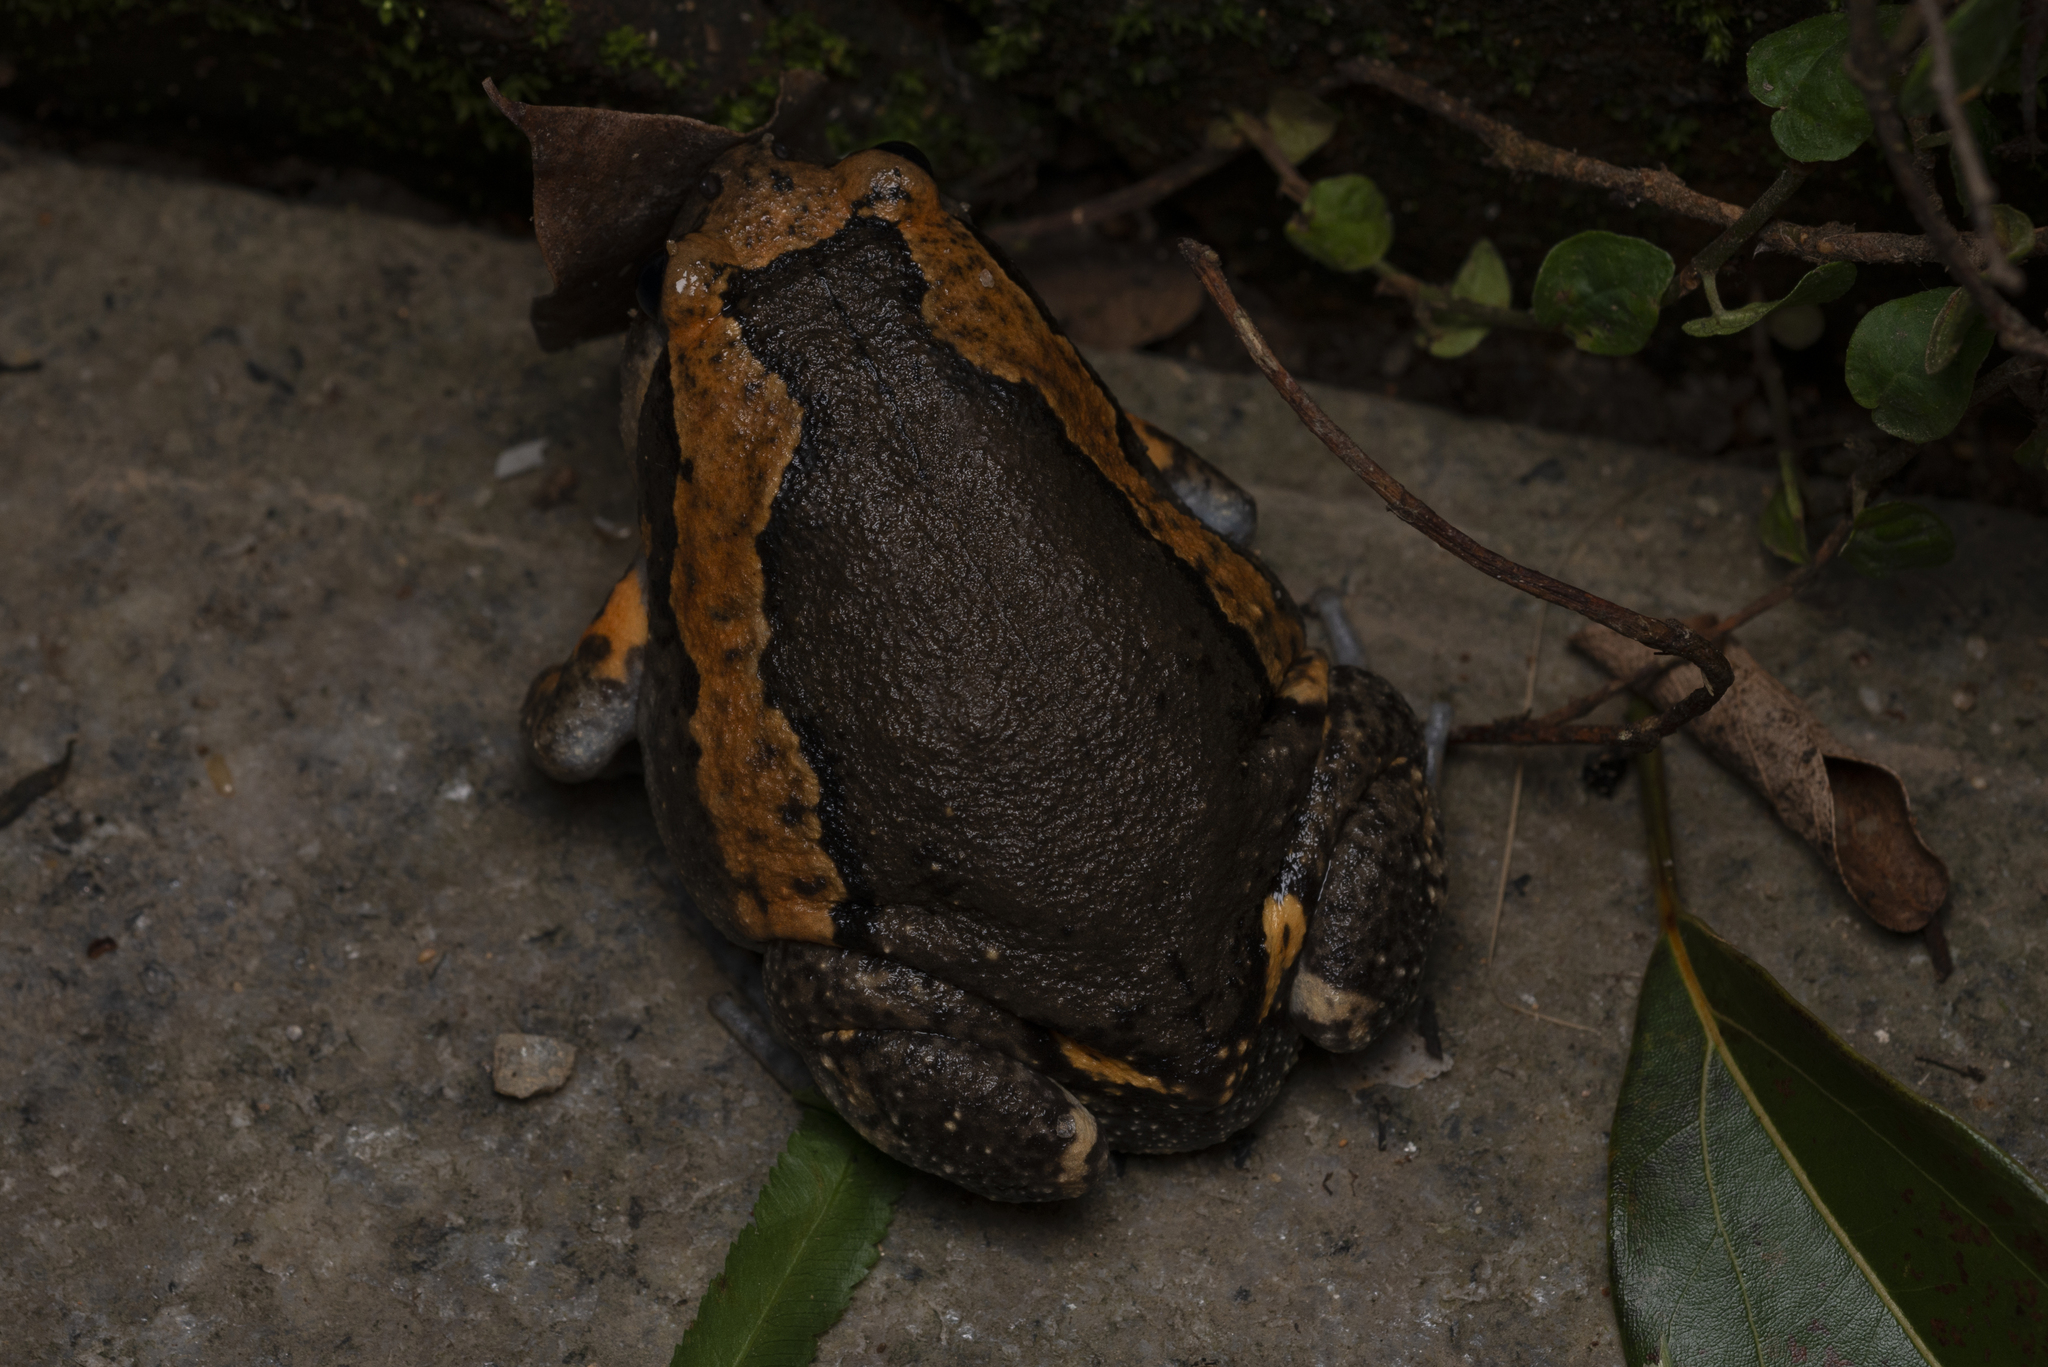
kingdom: Animalia
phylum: Chordata
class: Amphibia
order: Anura
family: Microhylidae
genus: Kaloula
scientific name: Kaloula pulchra
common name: Common,banded bullfrog
